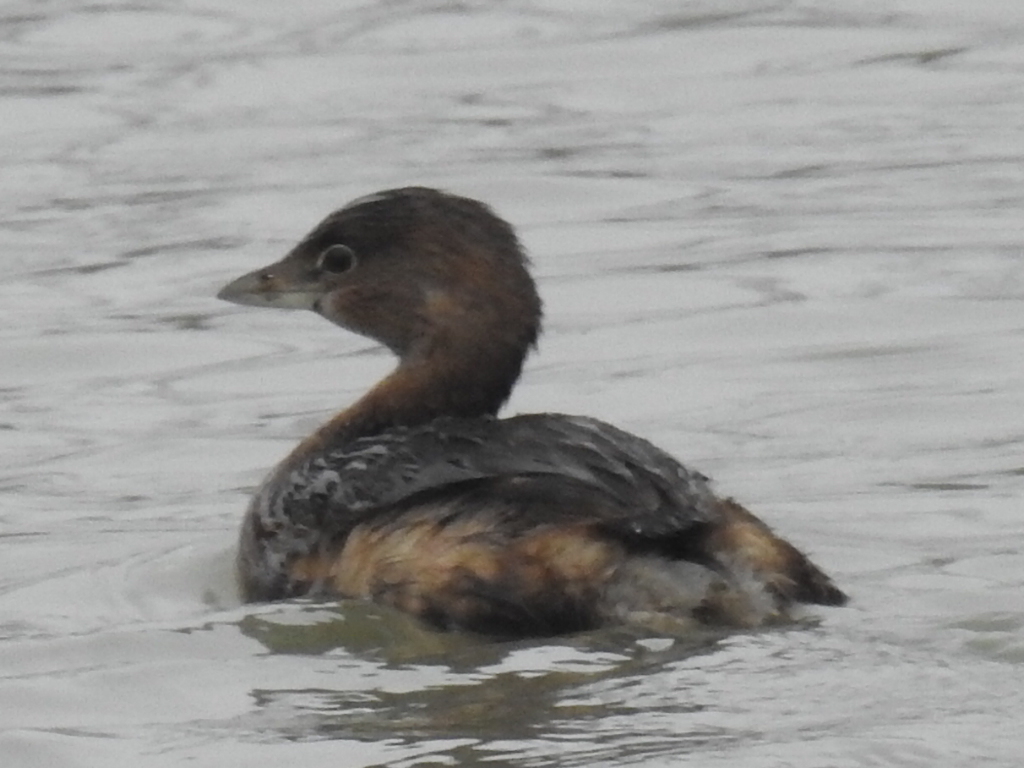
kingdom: Animalia
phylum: Chordata
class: Aves
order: Podicipediformes
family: Podicipedidae
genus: Podilymbus
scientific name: Podilymbus podiceps
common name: Pied-billed grebe
